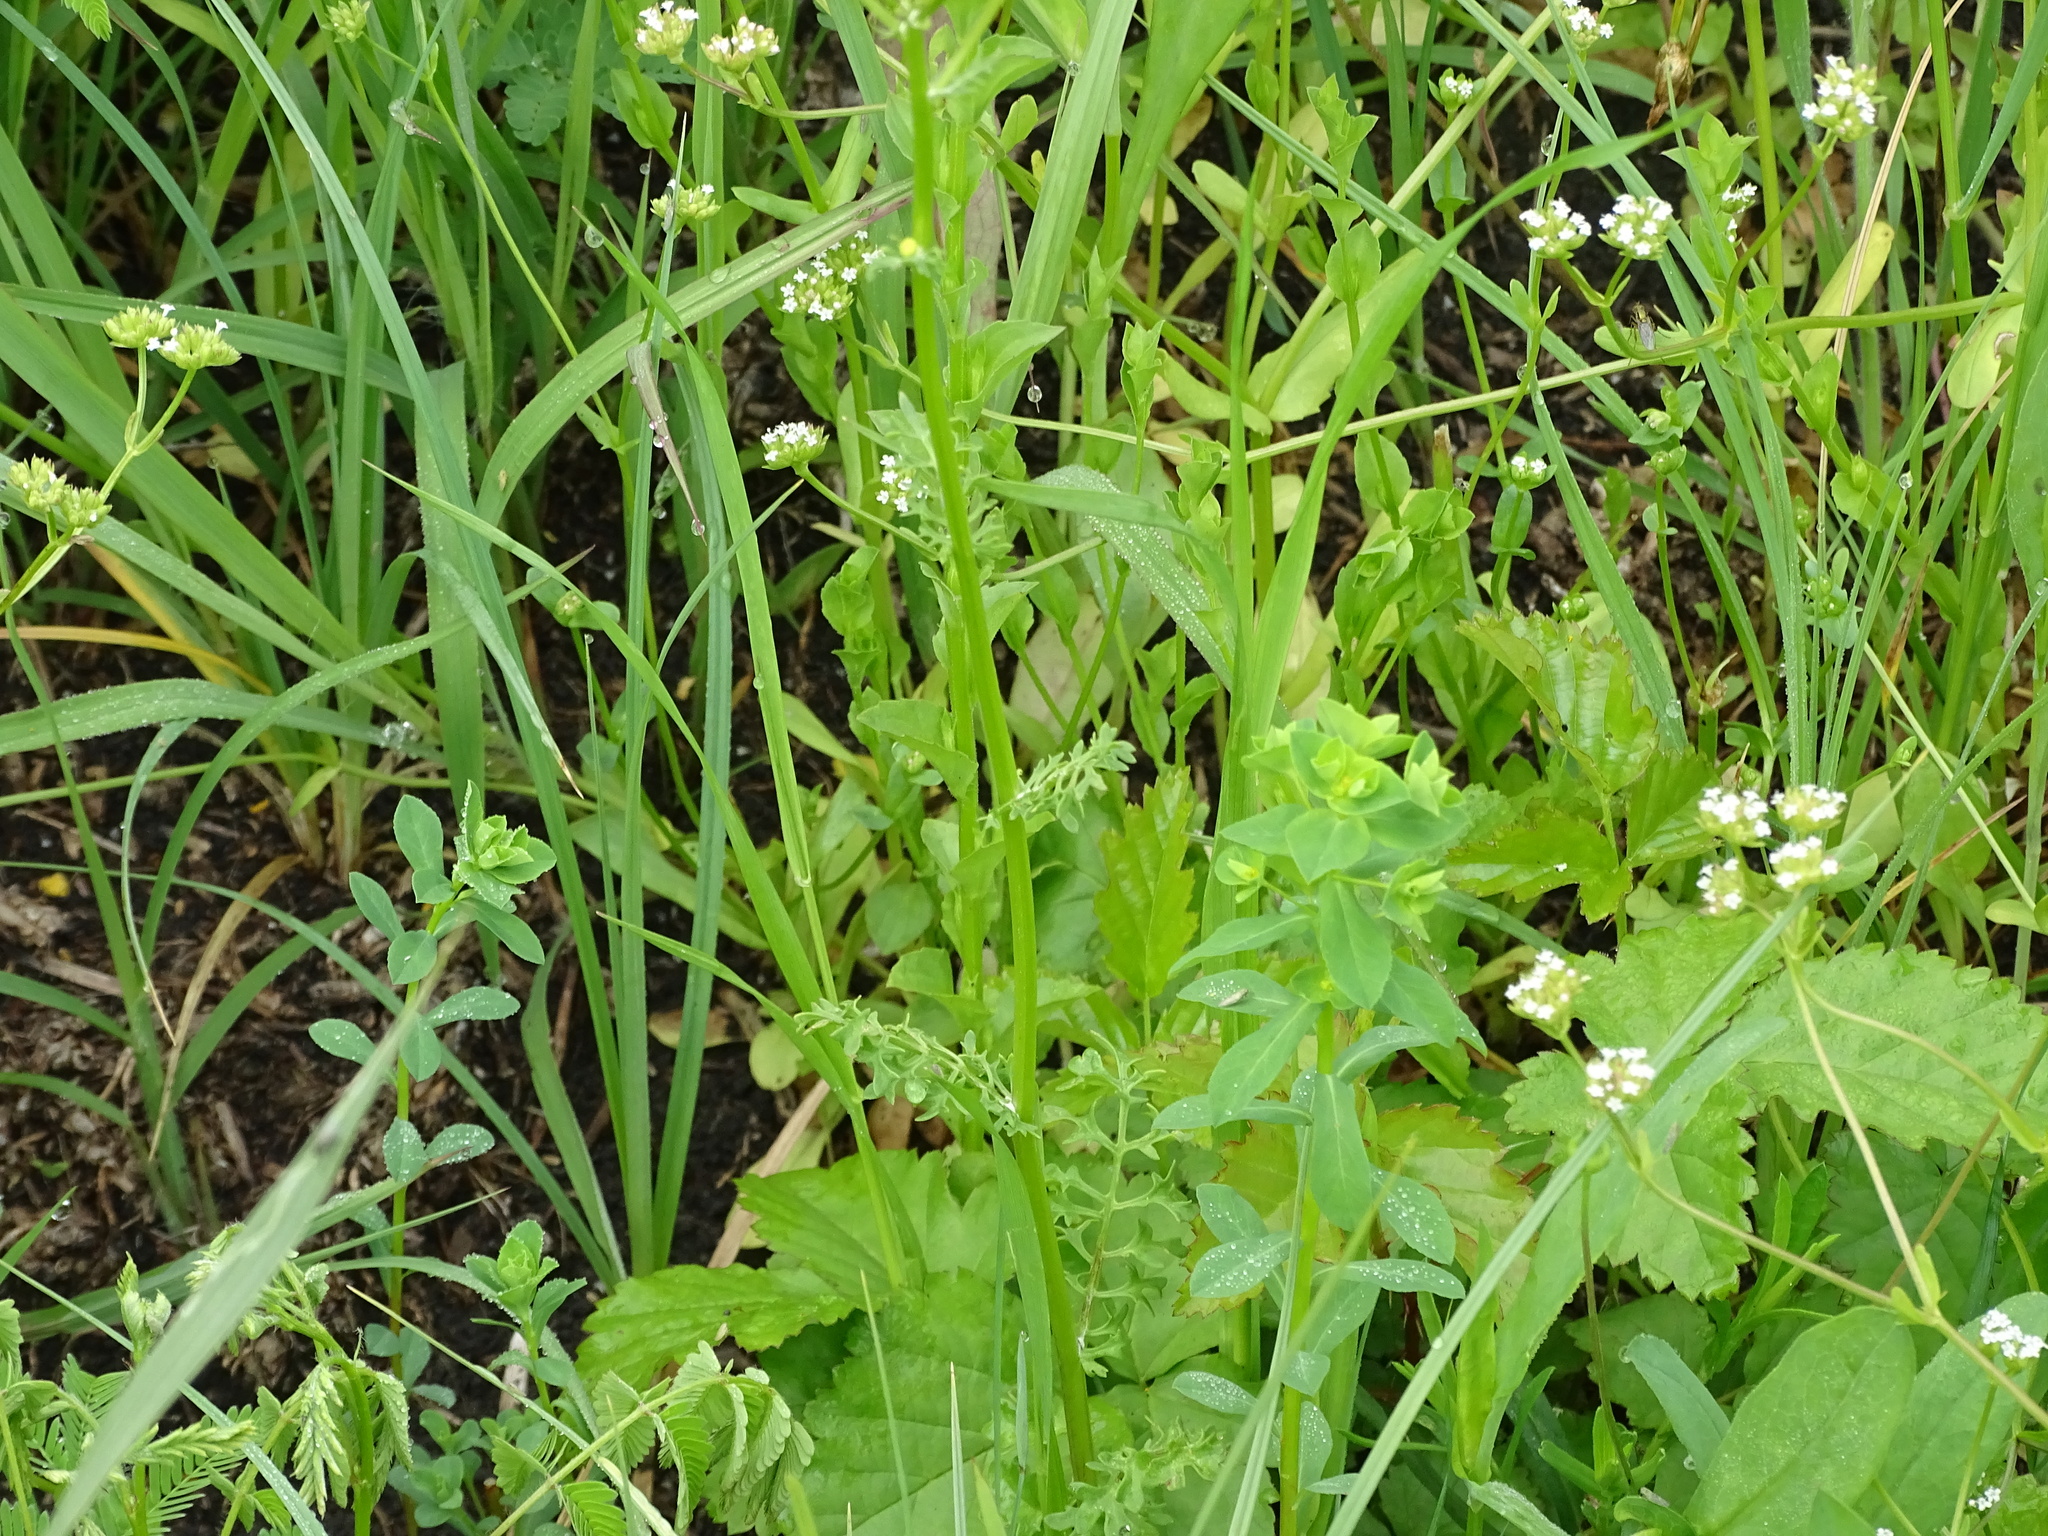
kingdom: Plantae
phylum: Tracheophyta
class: Magnoliopsida
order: Asterales
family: Asteraceae
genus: Packera
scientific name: Packera tampicana
